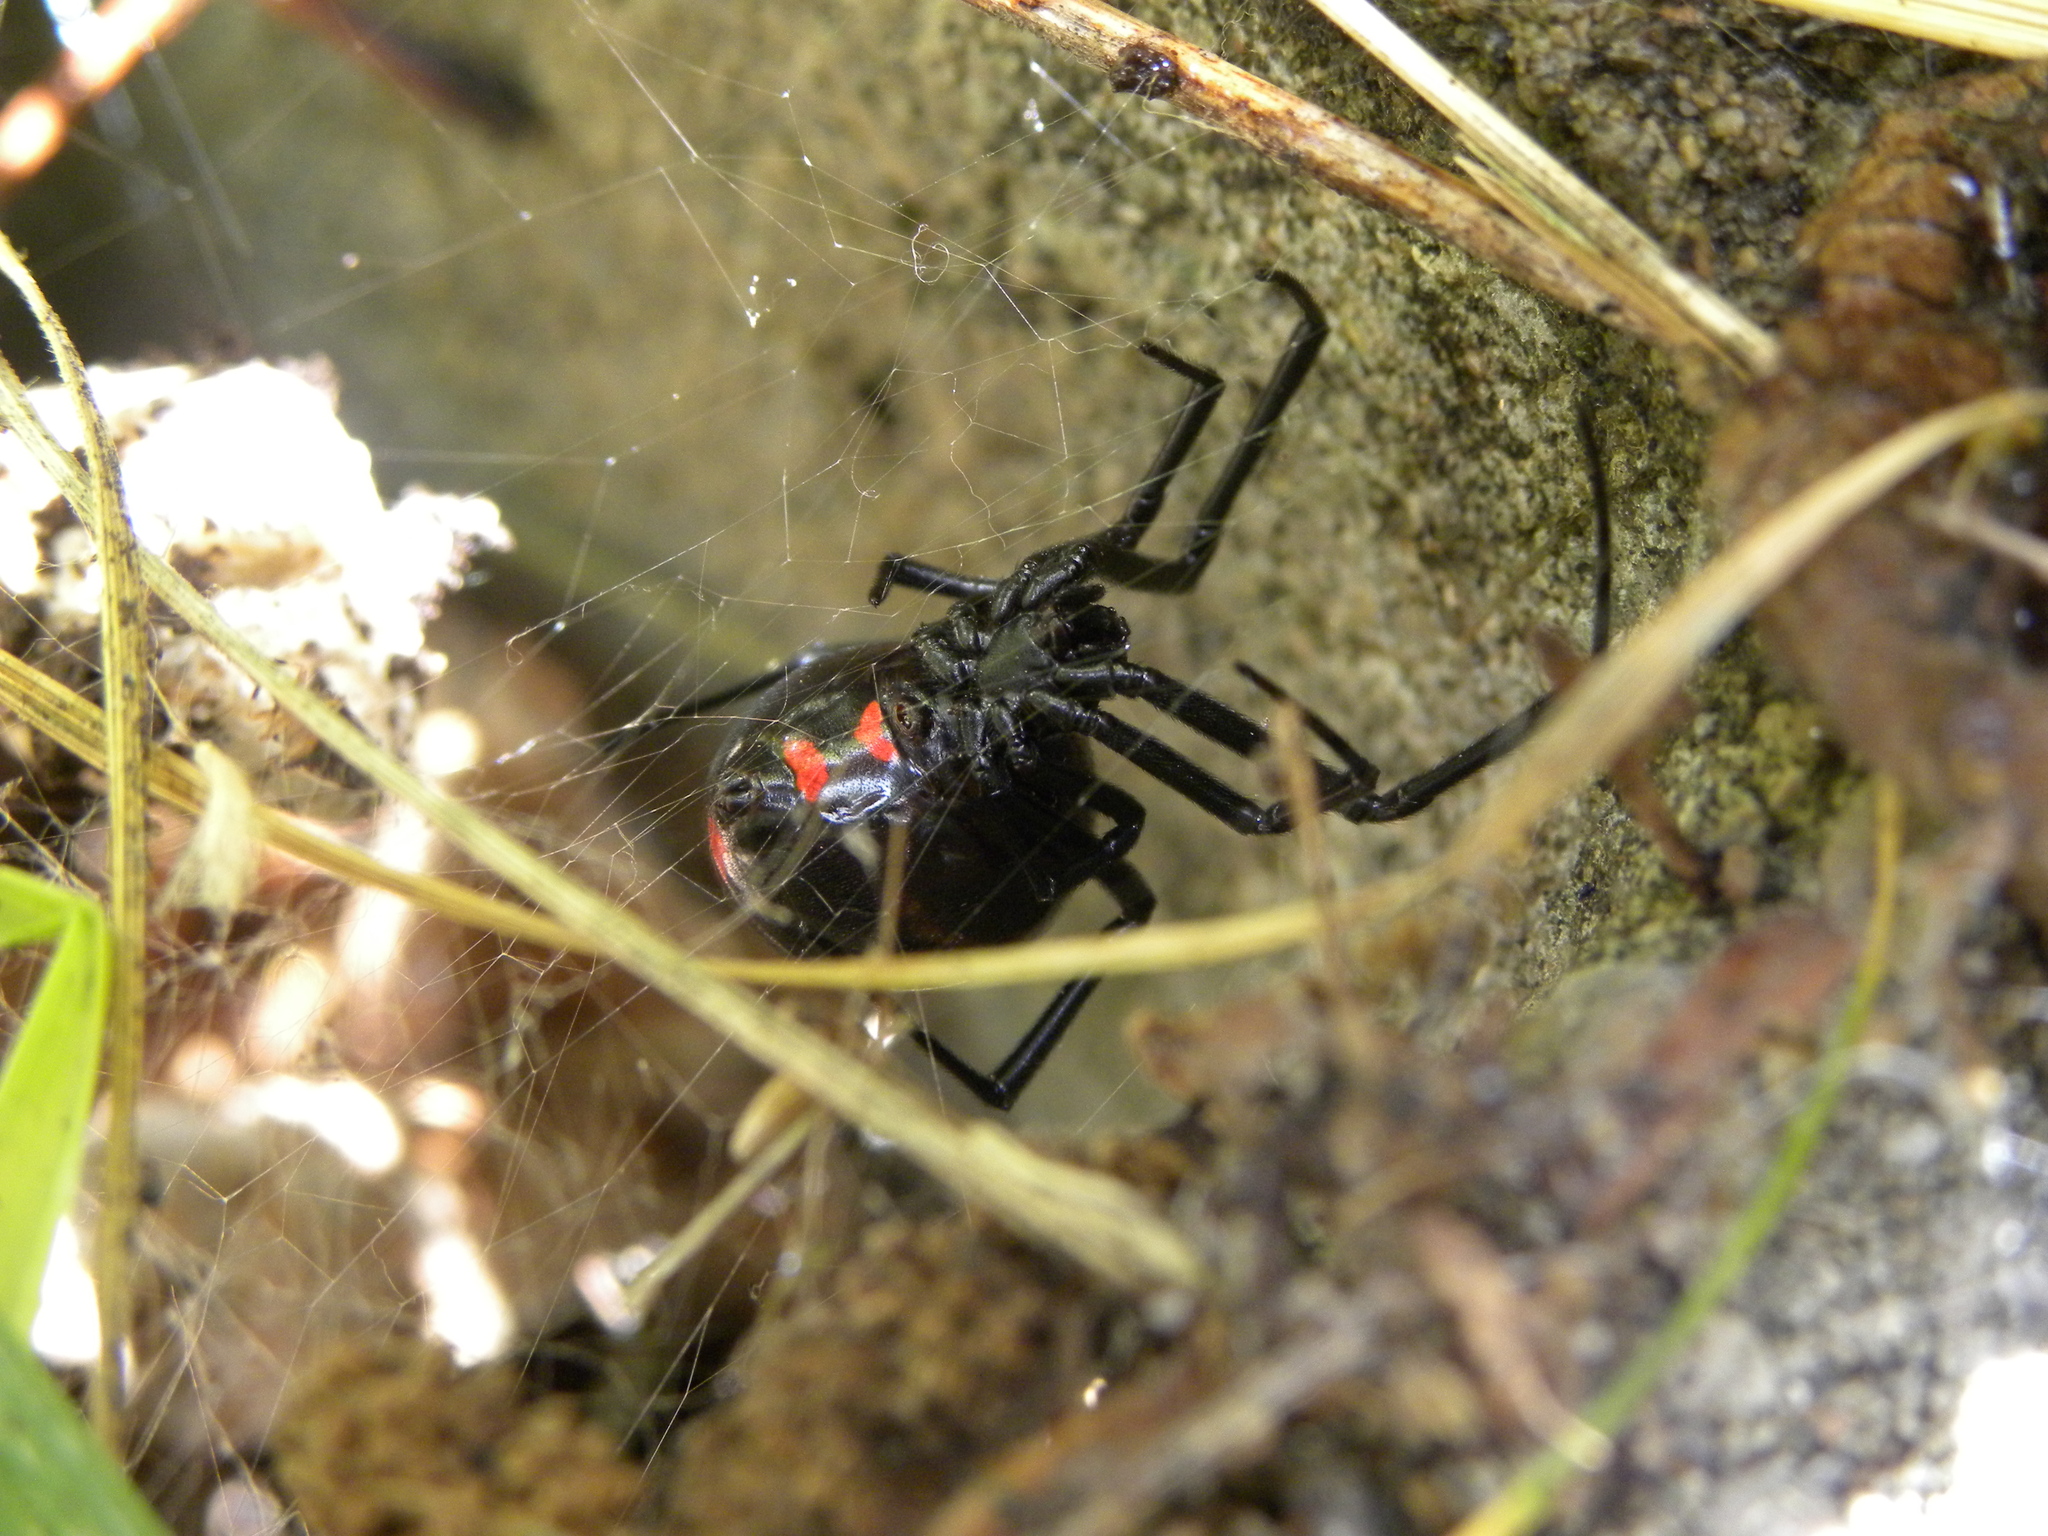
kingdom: Animalia
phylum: Arthropoda
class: Arachnida
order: Araneae
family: Theridiidae
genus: Latrodectus
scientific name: Latrodectus variolus
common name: Northern black widow
